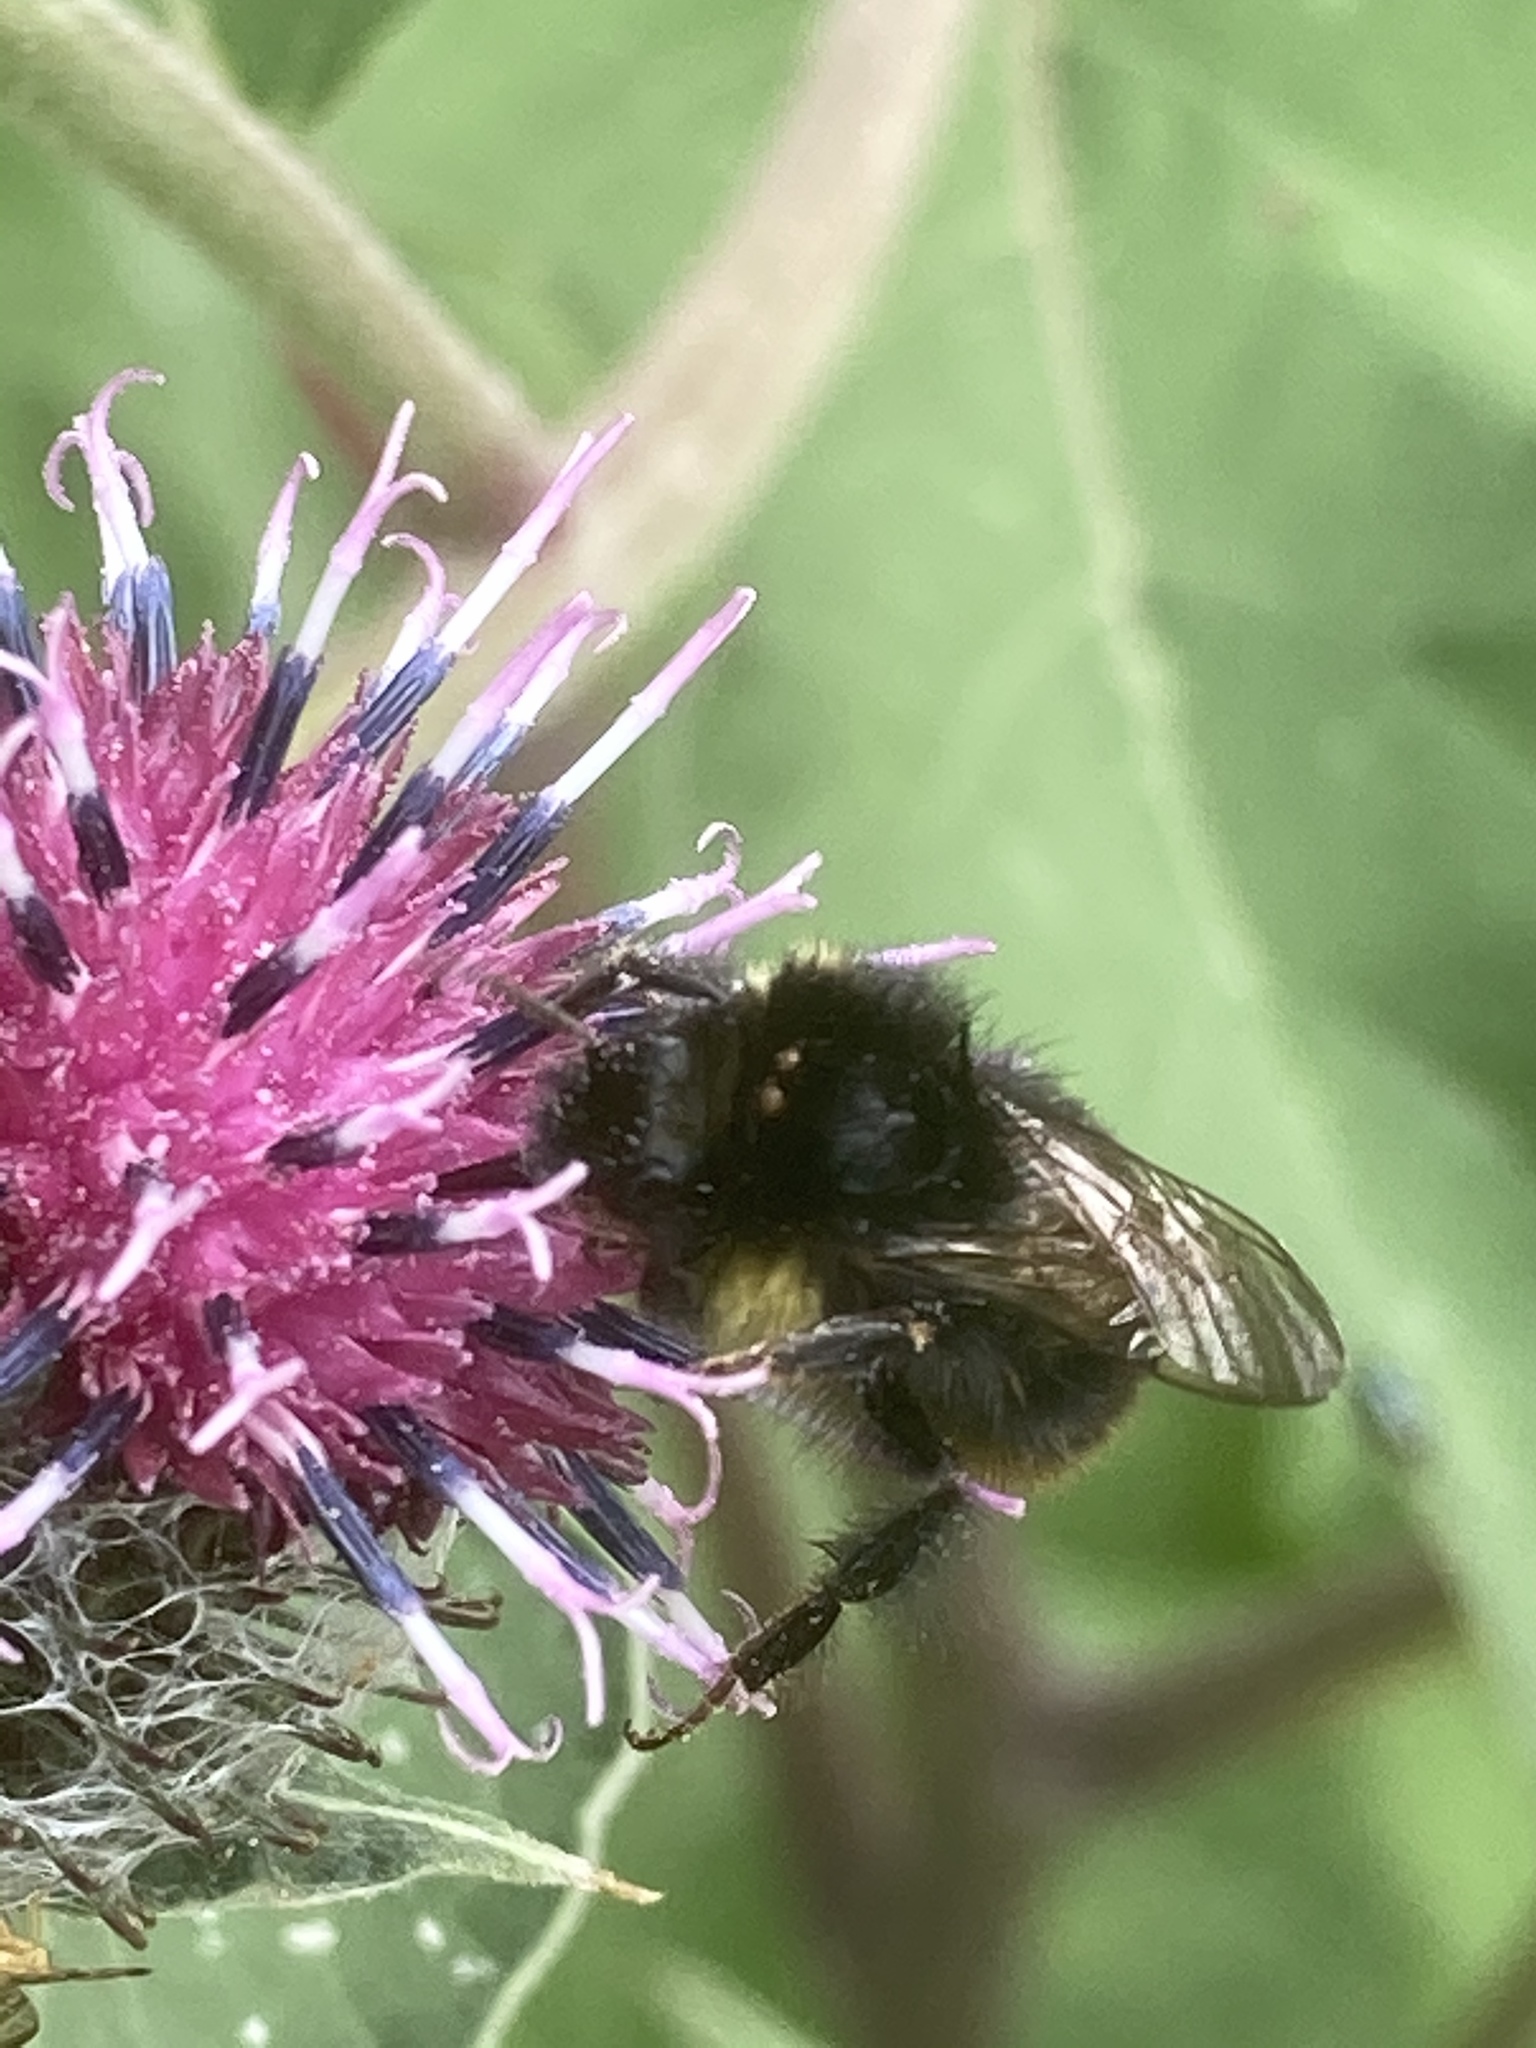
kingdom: Animalia
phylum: Arthropoda
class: Insecta
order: Hymenoptera
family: Apidae
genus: Bombus
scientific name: Bombus soroeensis
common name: Broken-belted humble-bee
